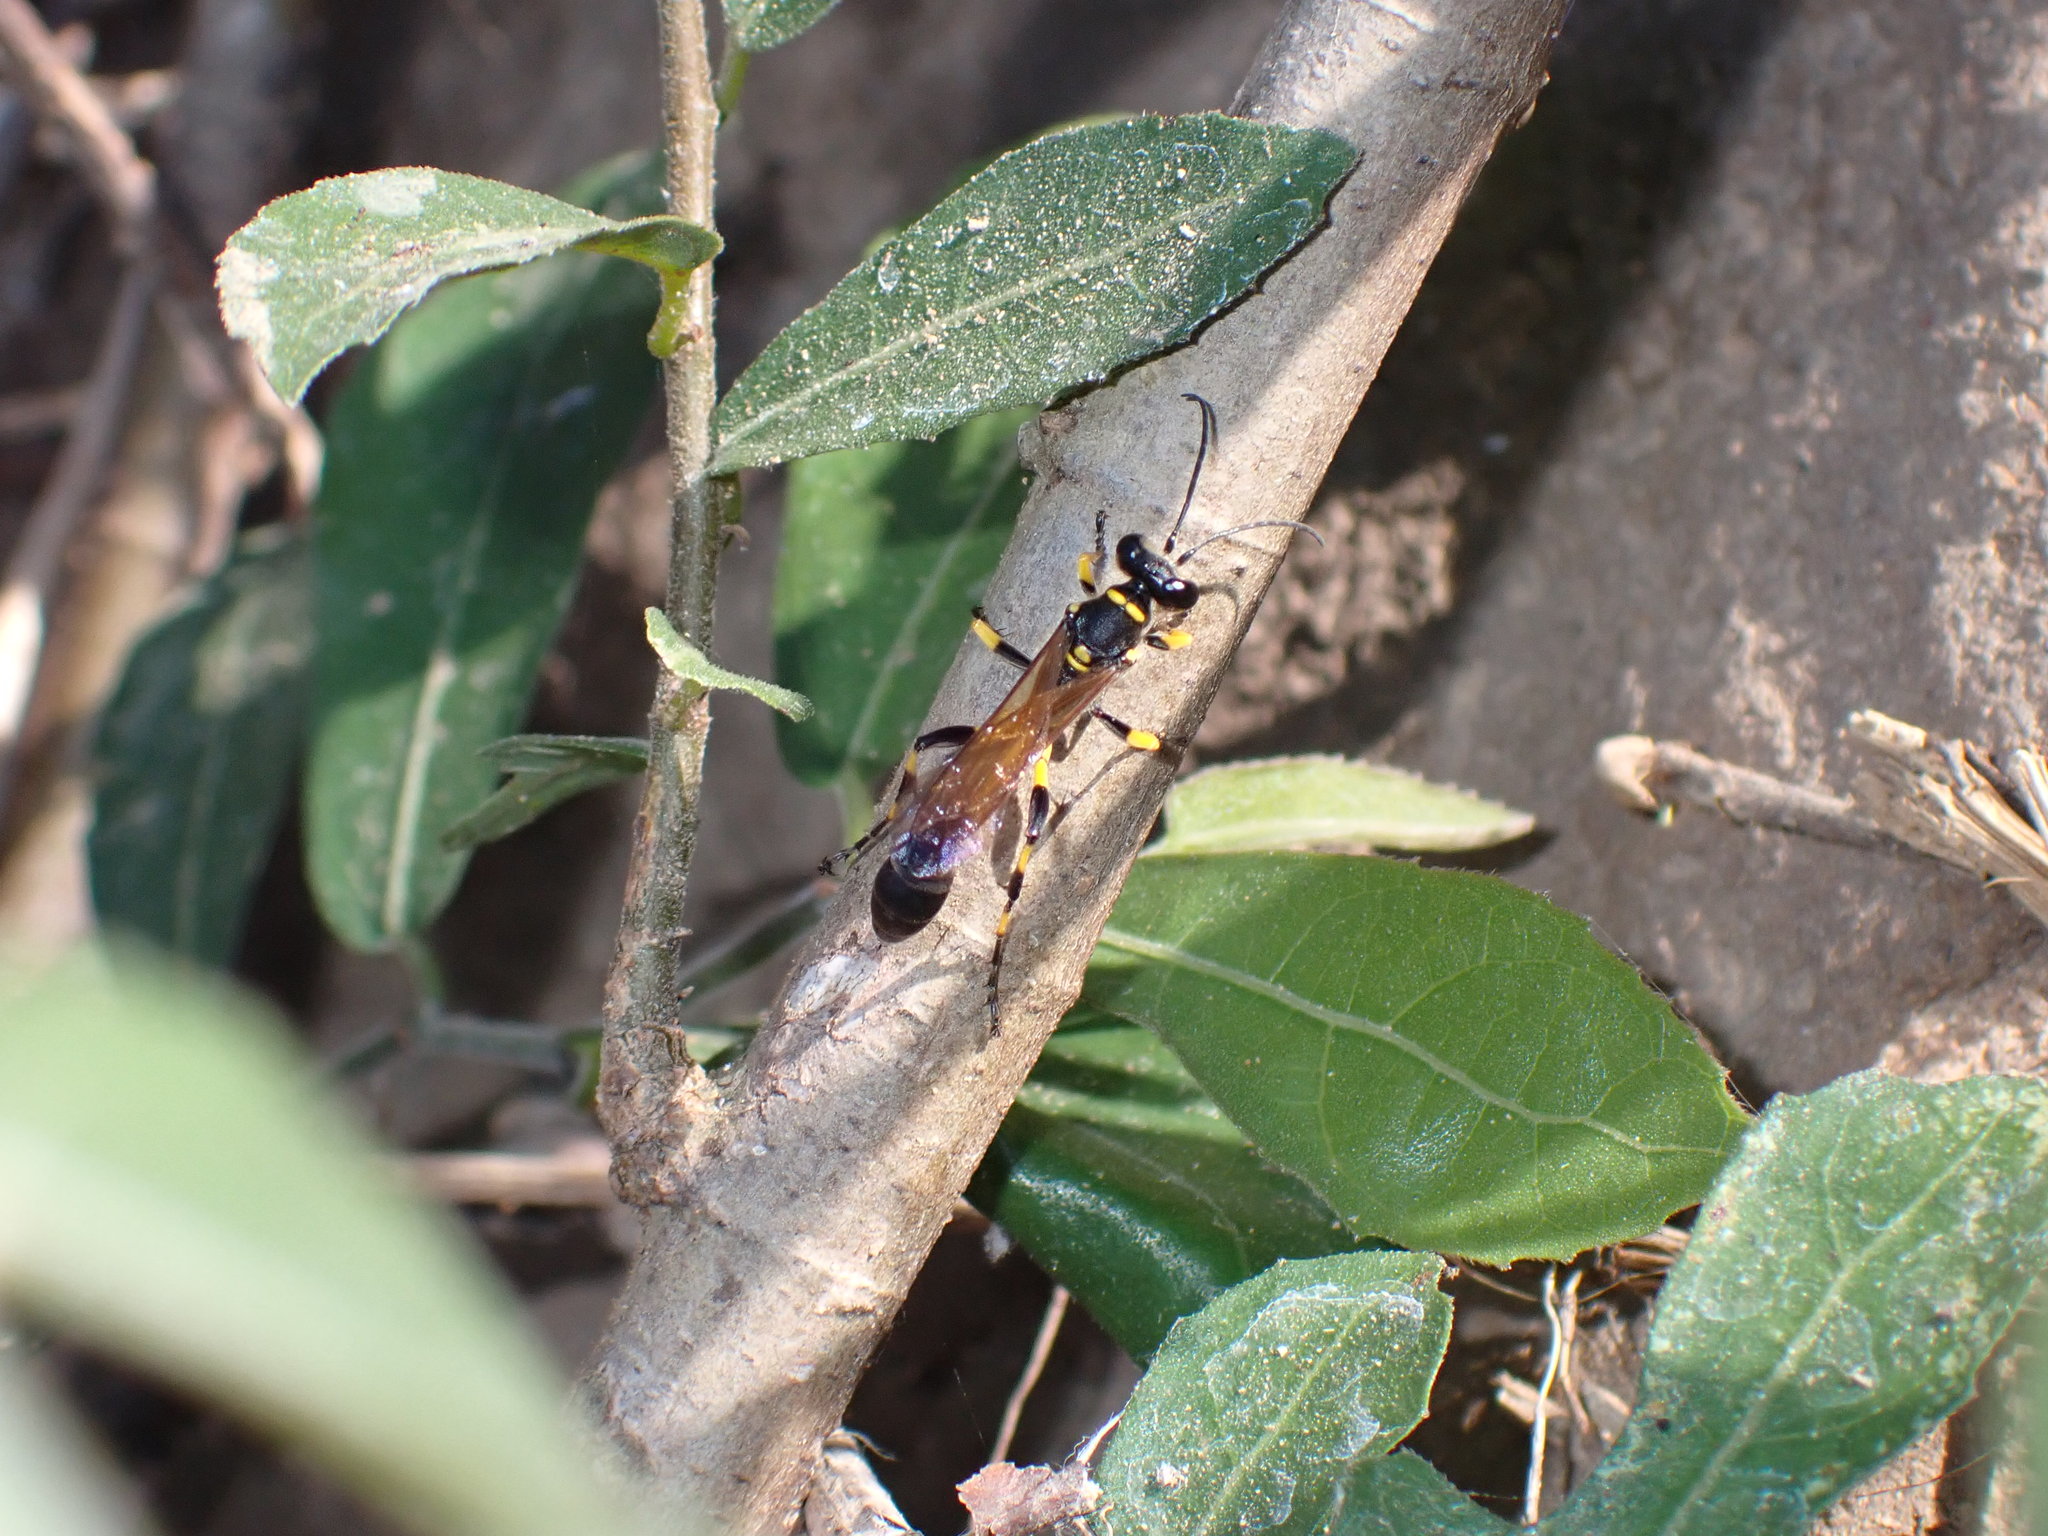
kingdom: Animalia
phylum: Arthropoda
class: Insecta
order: Hymenoptera
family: Sphecidae
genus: Sceliphron
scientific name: Sceliphron madraspatanum
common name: Mud dauber
